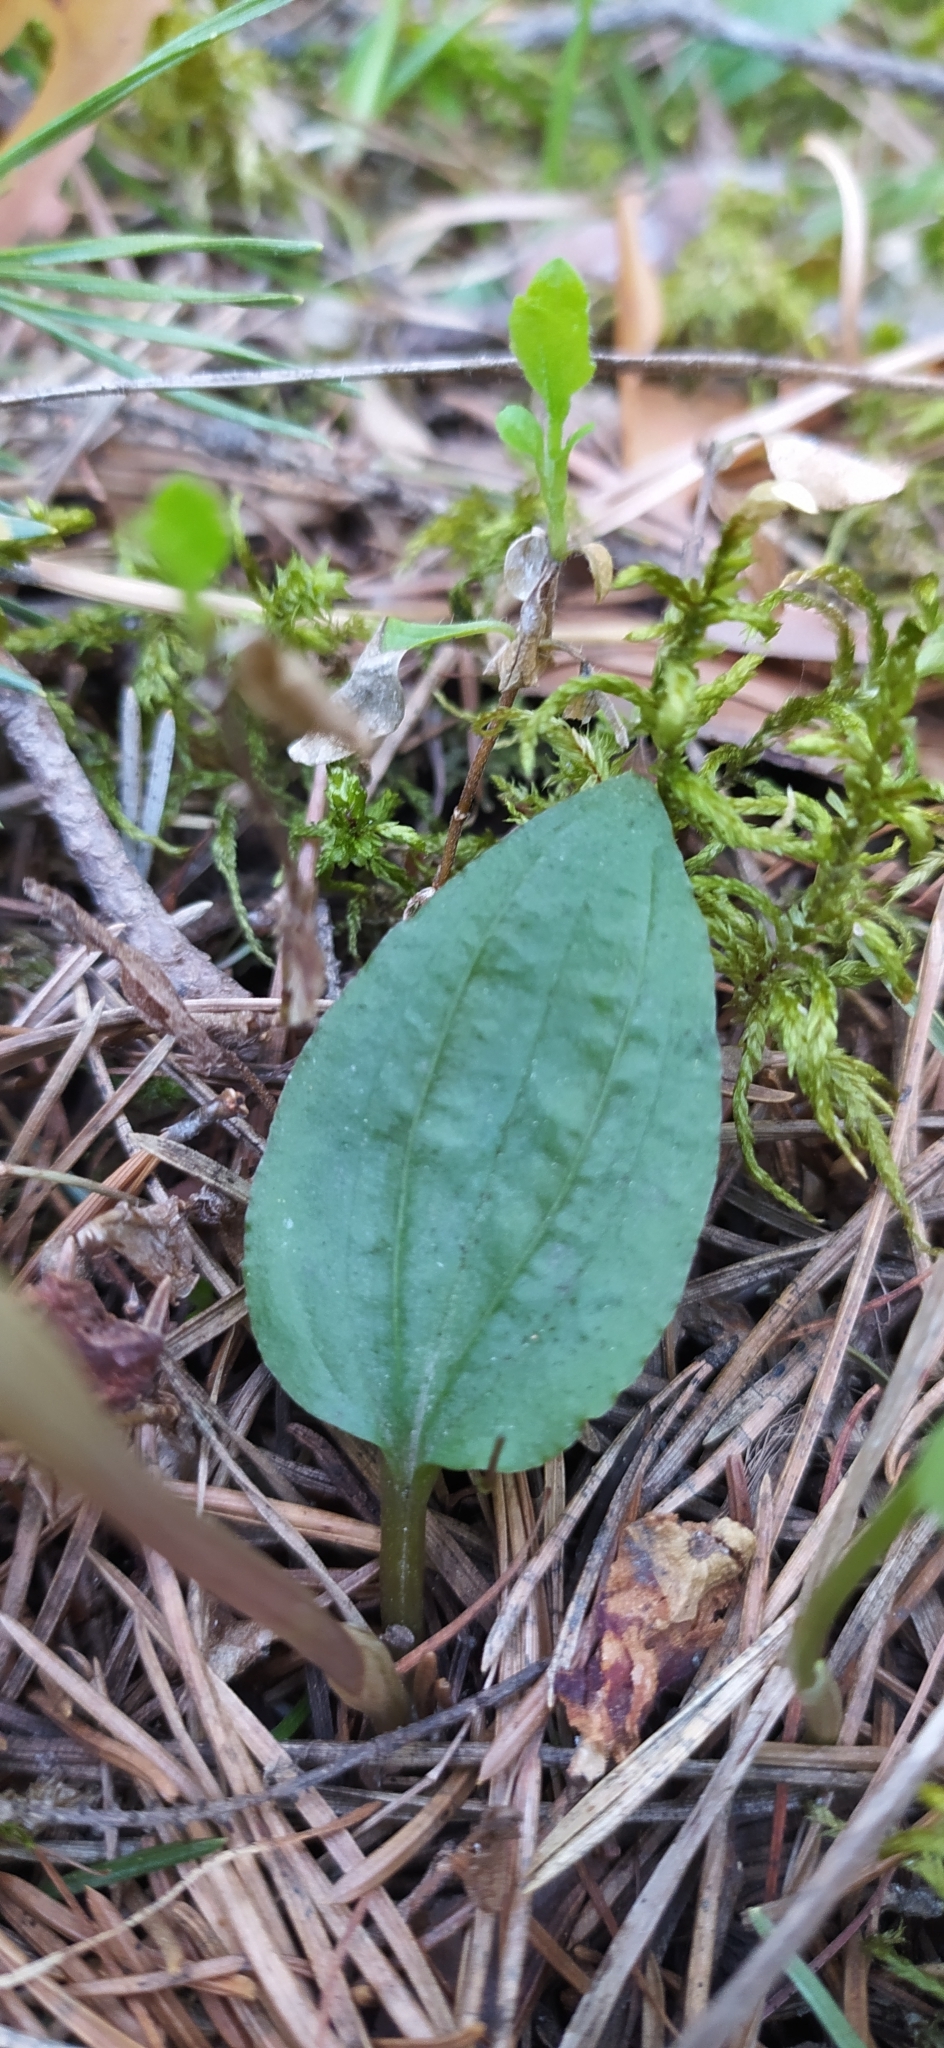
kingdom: Plantae
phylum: Tracheophyta
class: Liliopsida
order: Asparagales
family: Orchidaceae
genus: Calypso
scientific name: Calypso bulbosa
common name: Calypso
